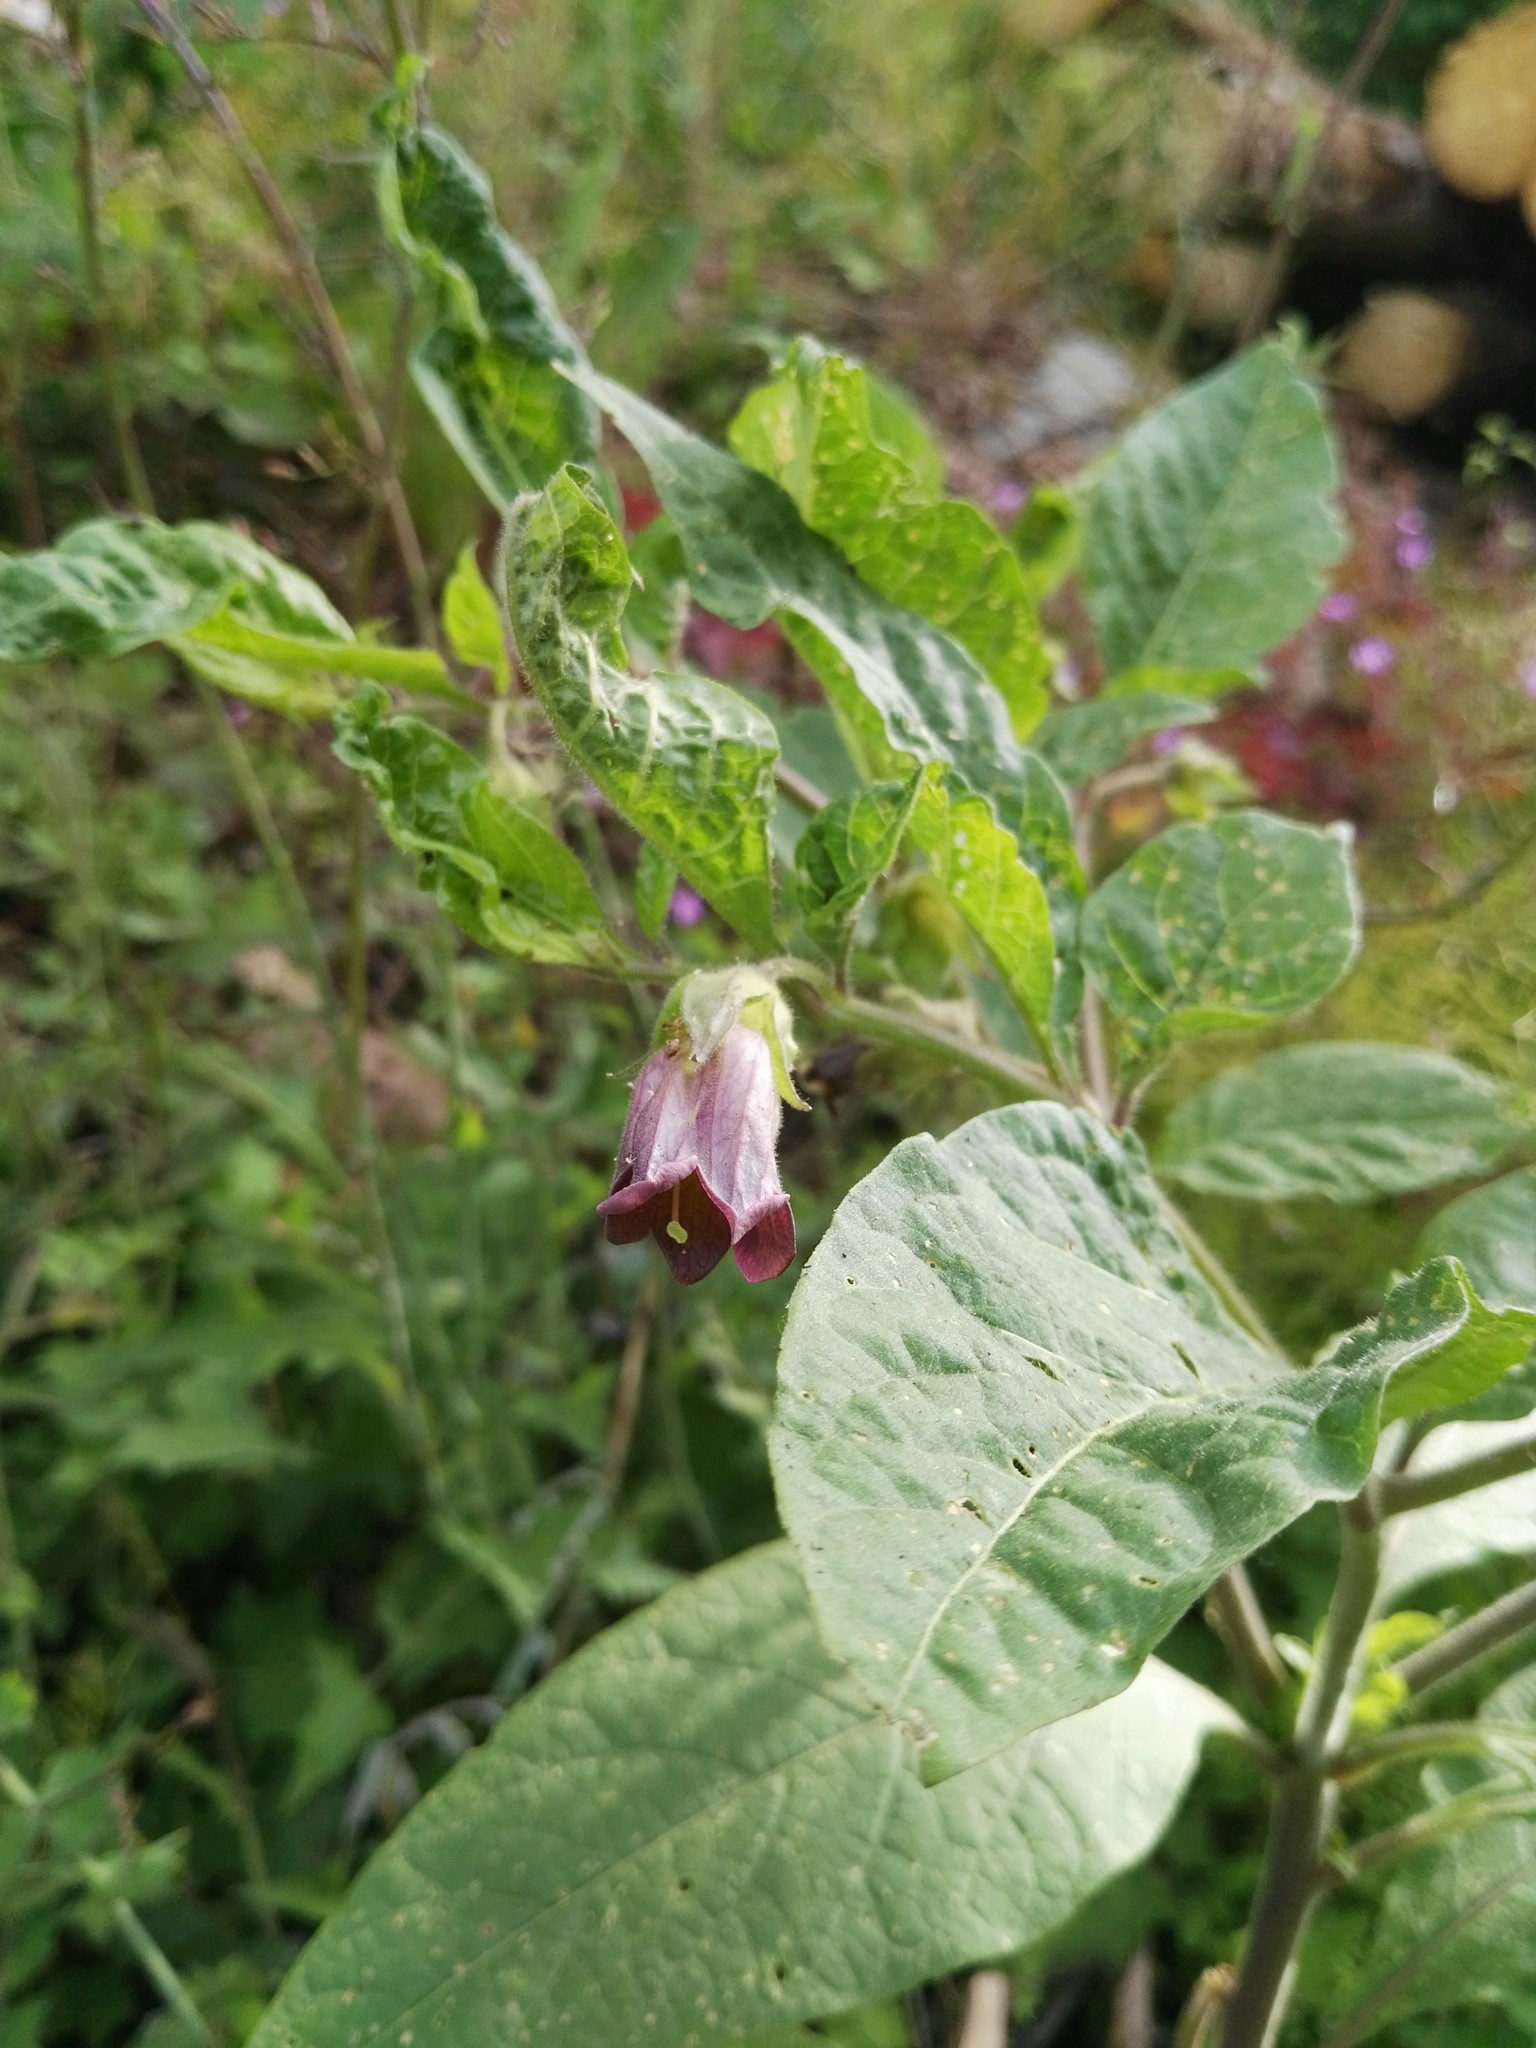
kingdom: Plantae
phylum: Tracheophyta
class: Magnoliopsida
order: Solanales
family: Solanaceae
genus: Atropa
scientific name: Atropa belladonna
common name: Deadly nightshade
